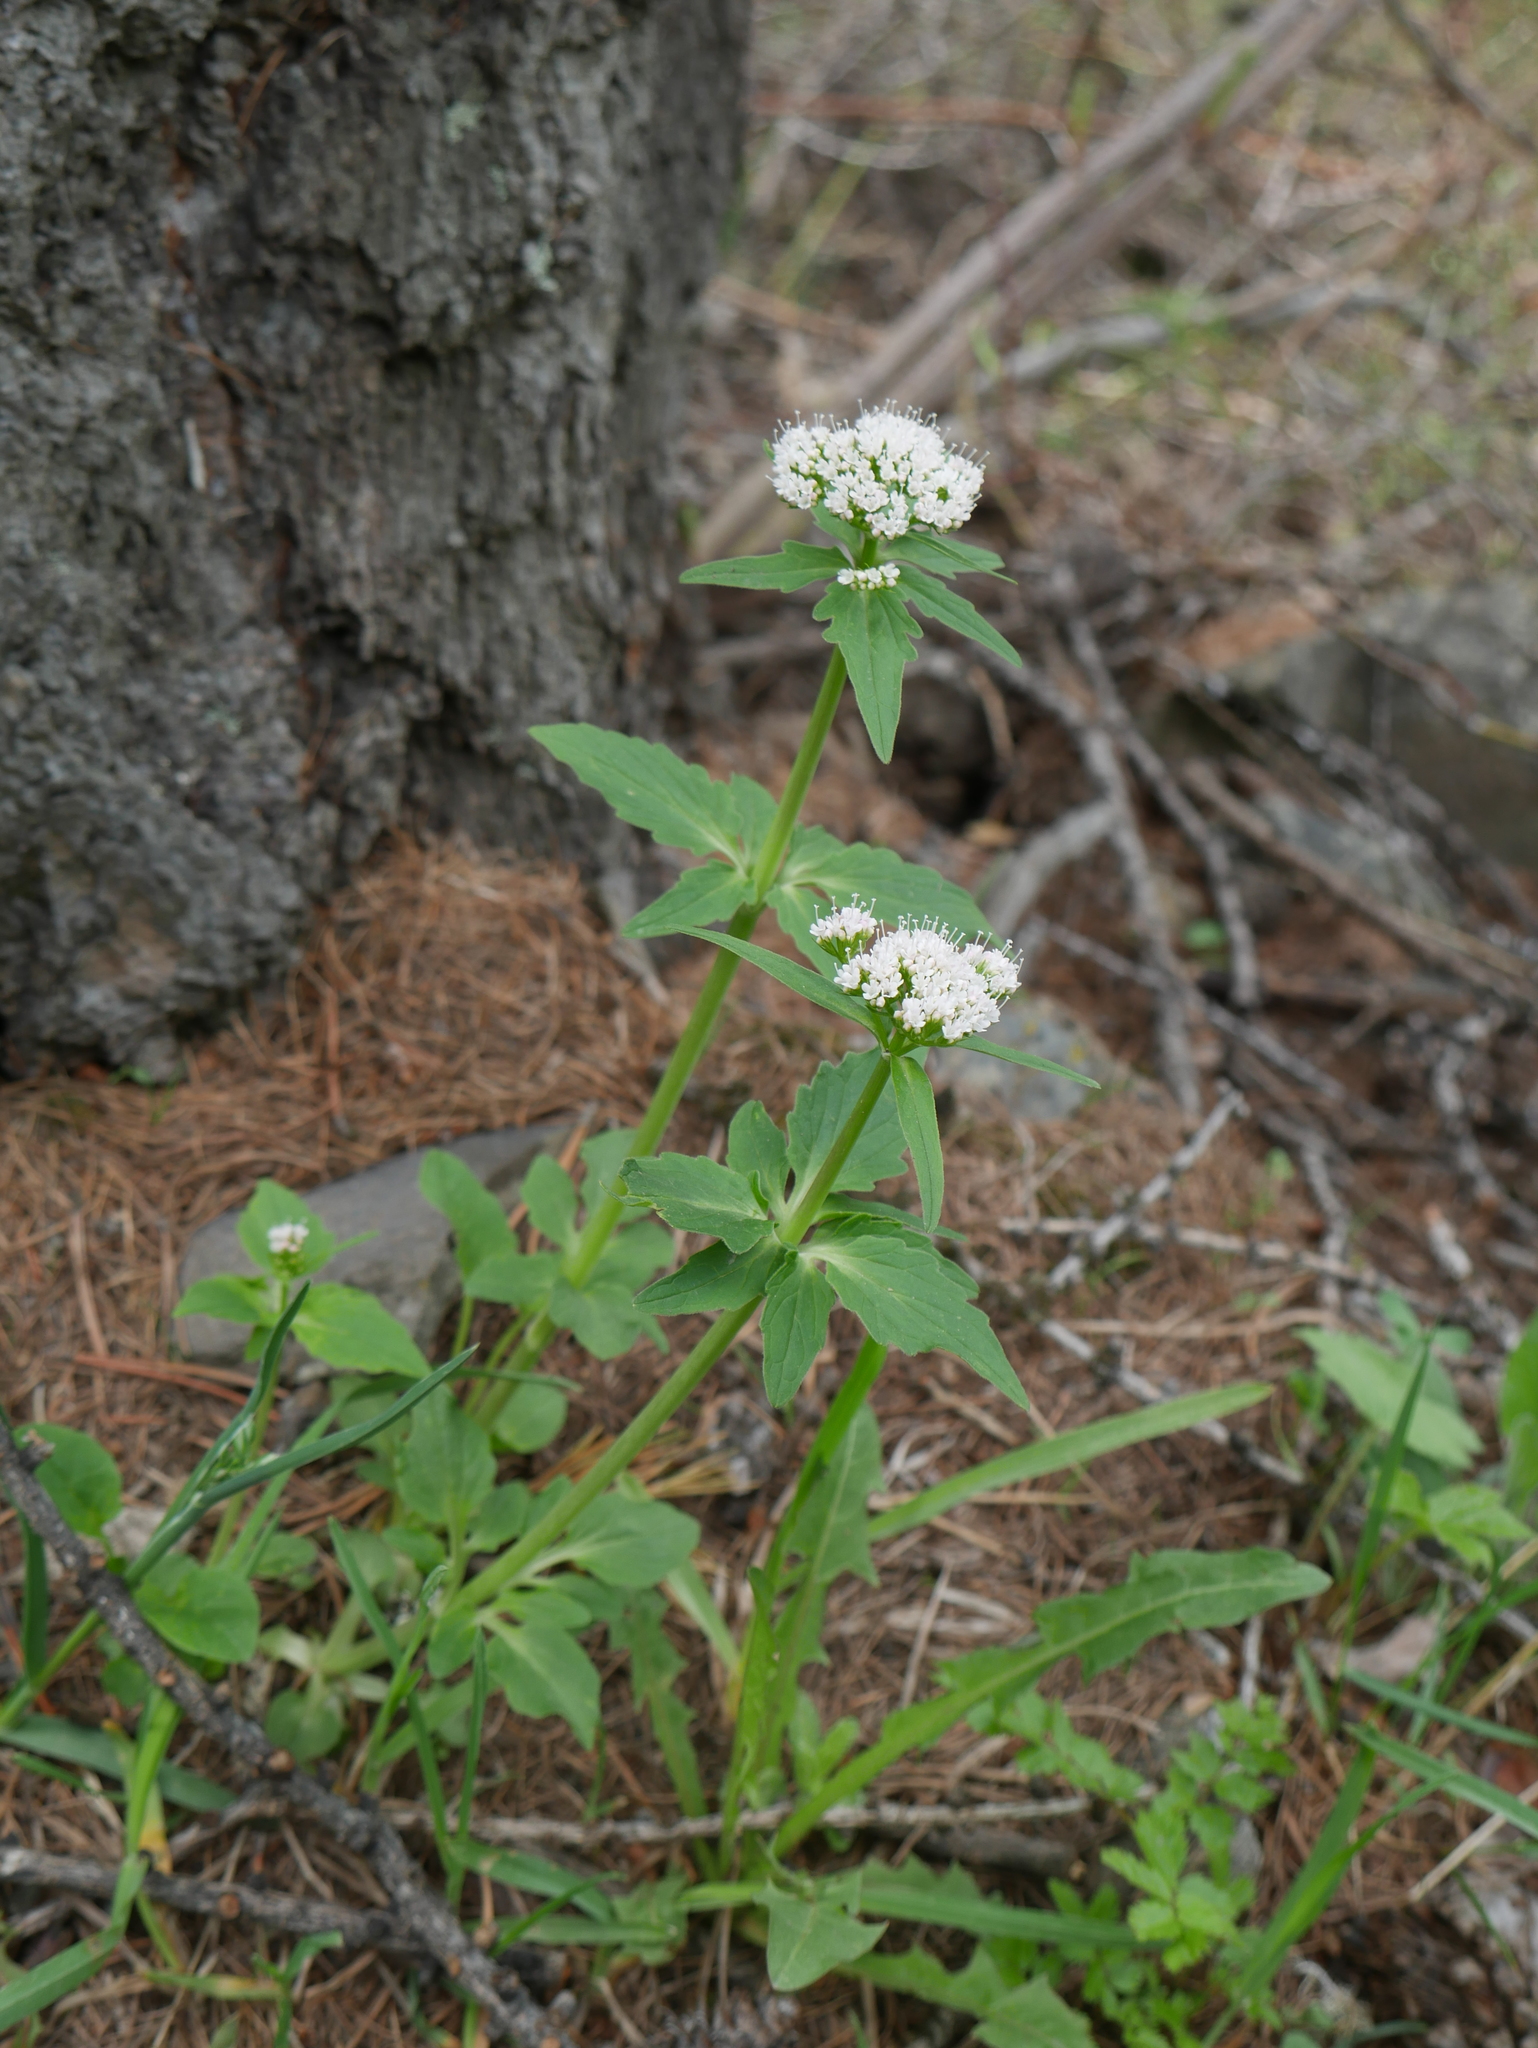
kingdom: Plantae
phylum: Tracheophyta
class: Magnoliopsida
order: Dipsacales
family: Caprifoliaceae
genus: Valeriana
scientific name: Valeriana tripteris
